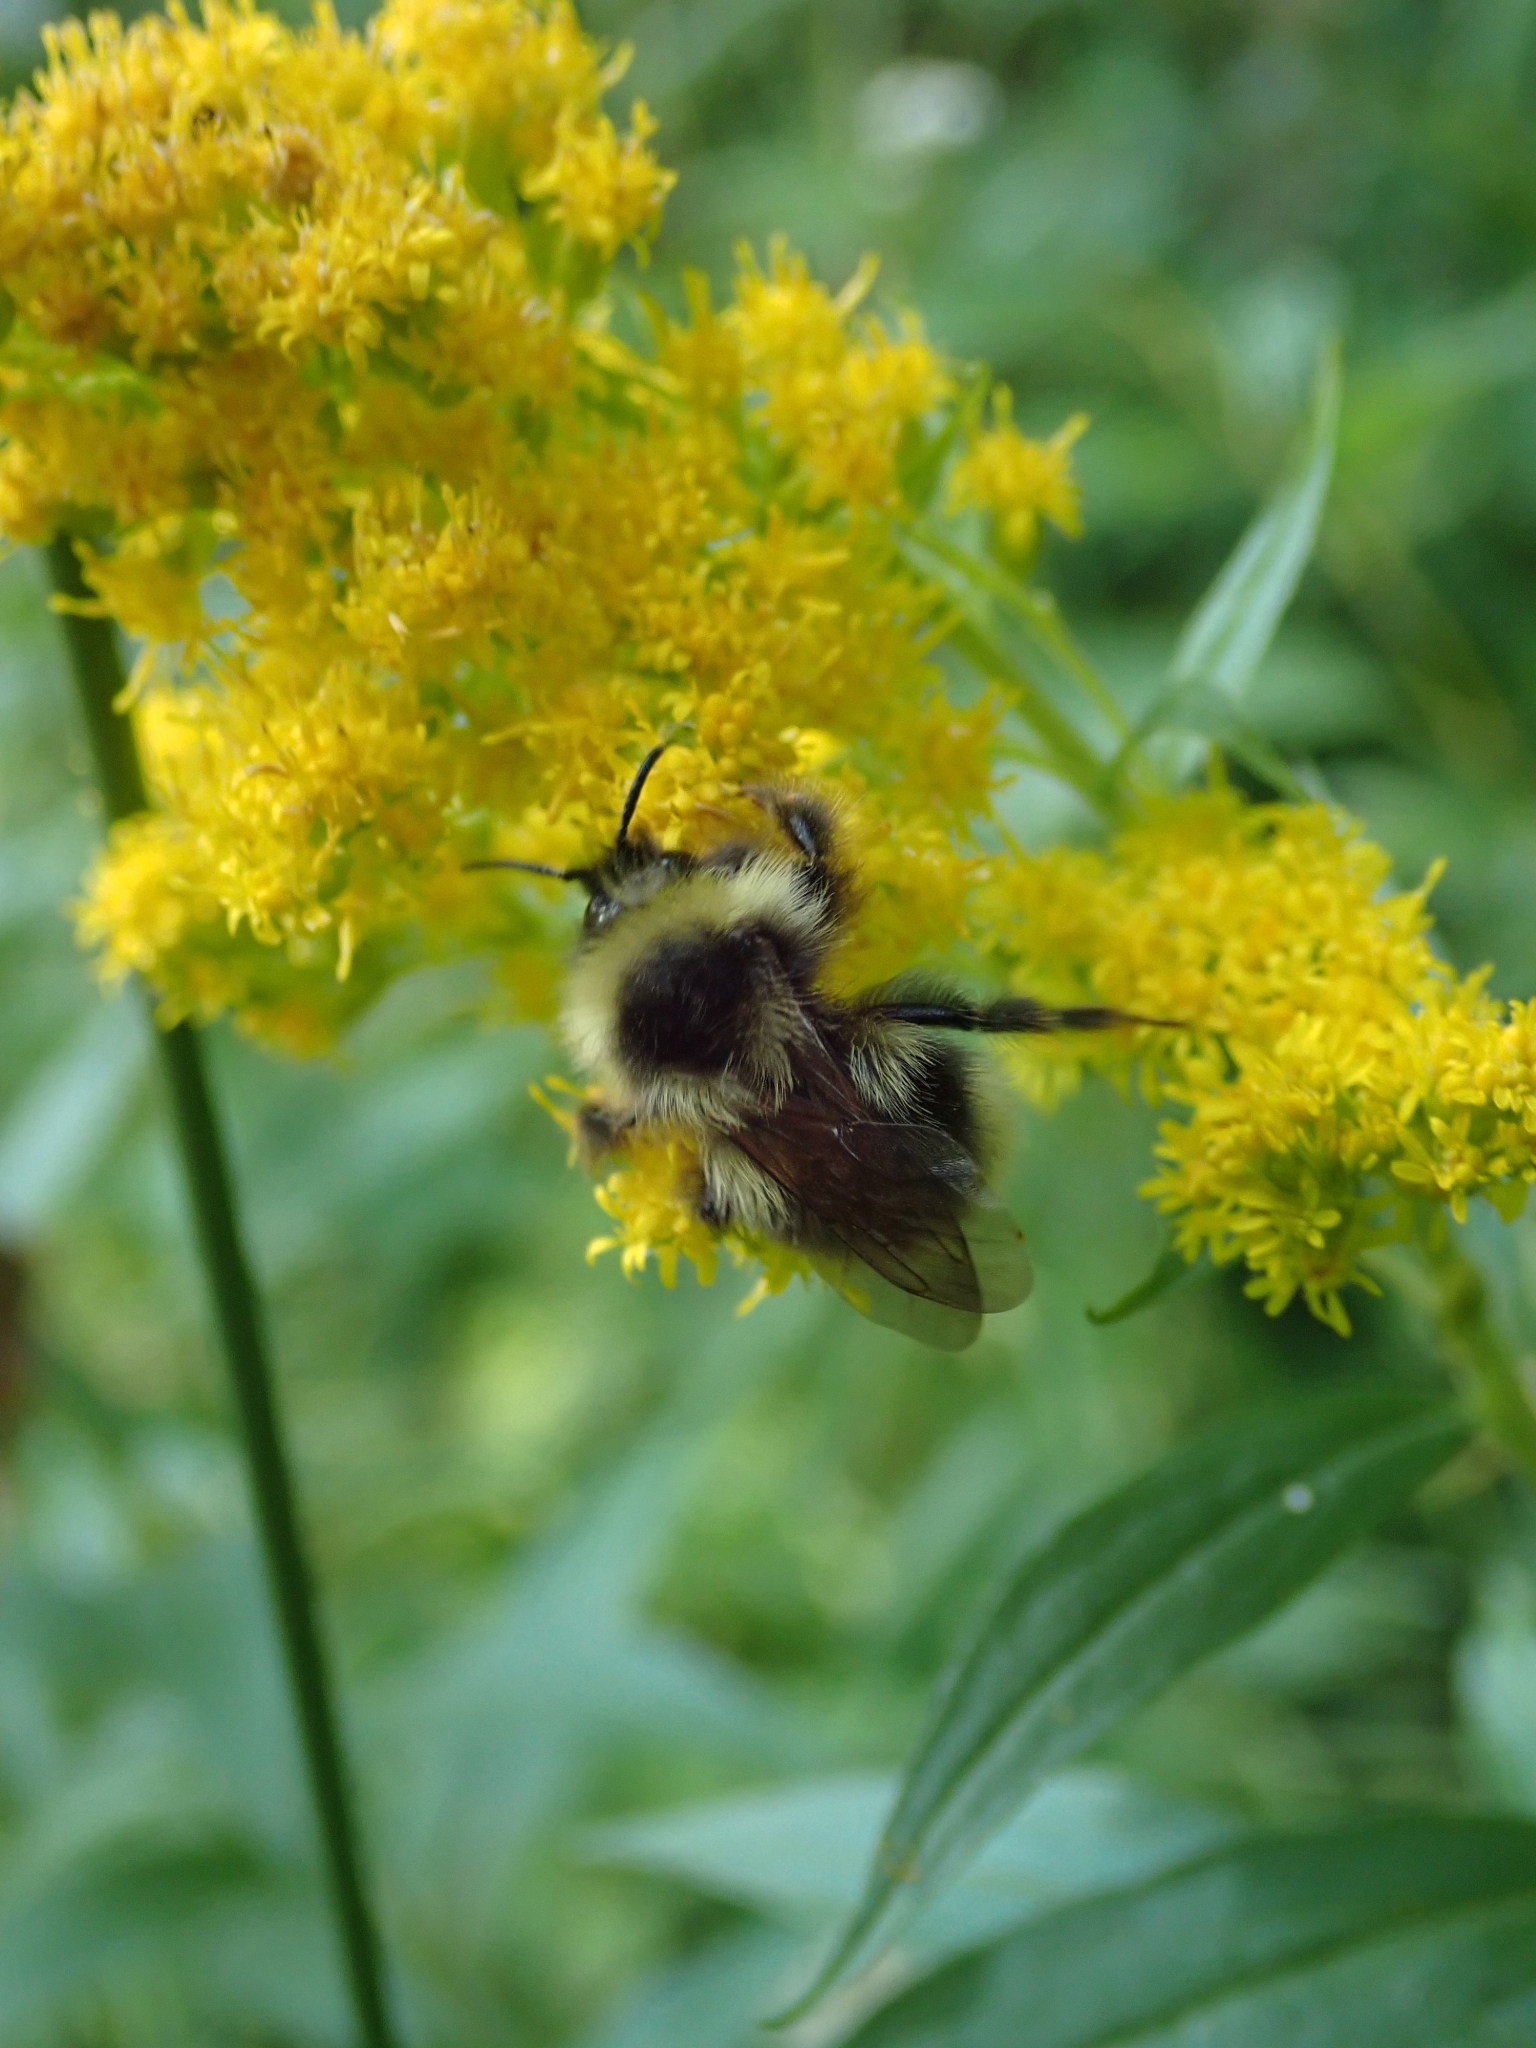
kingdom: Animalia
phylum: Arthropoda
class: Insecta
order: Hymenoptera
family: Apidae
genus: Bombus
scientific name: Bombus flavidus
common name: Fernald cuckoo bumble bee
